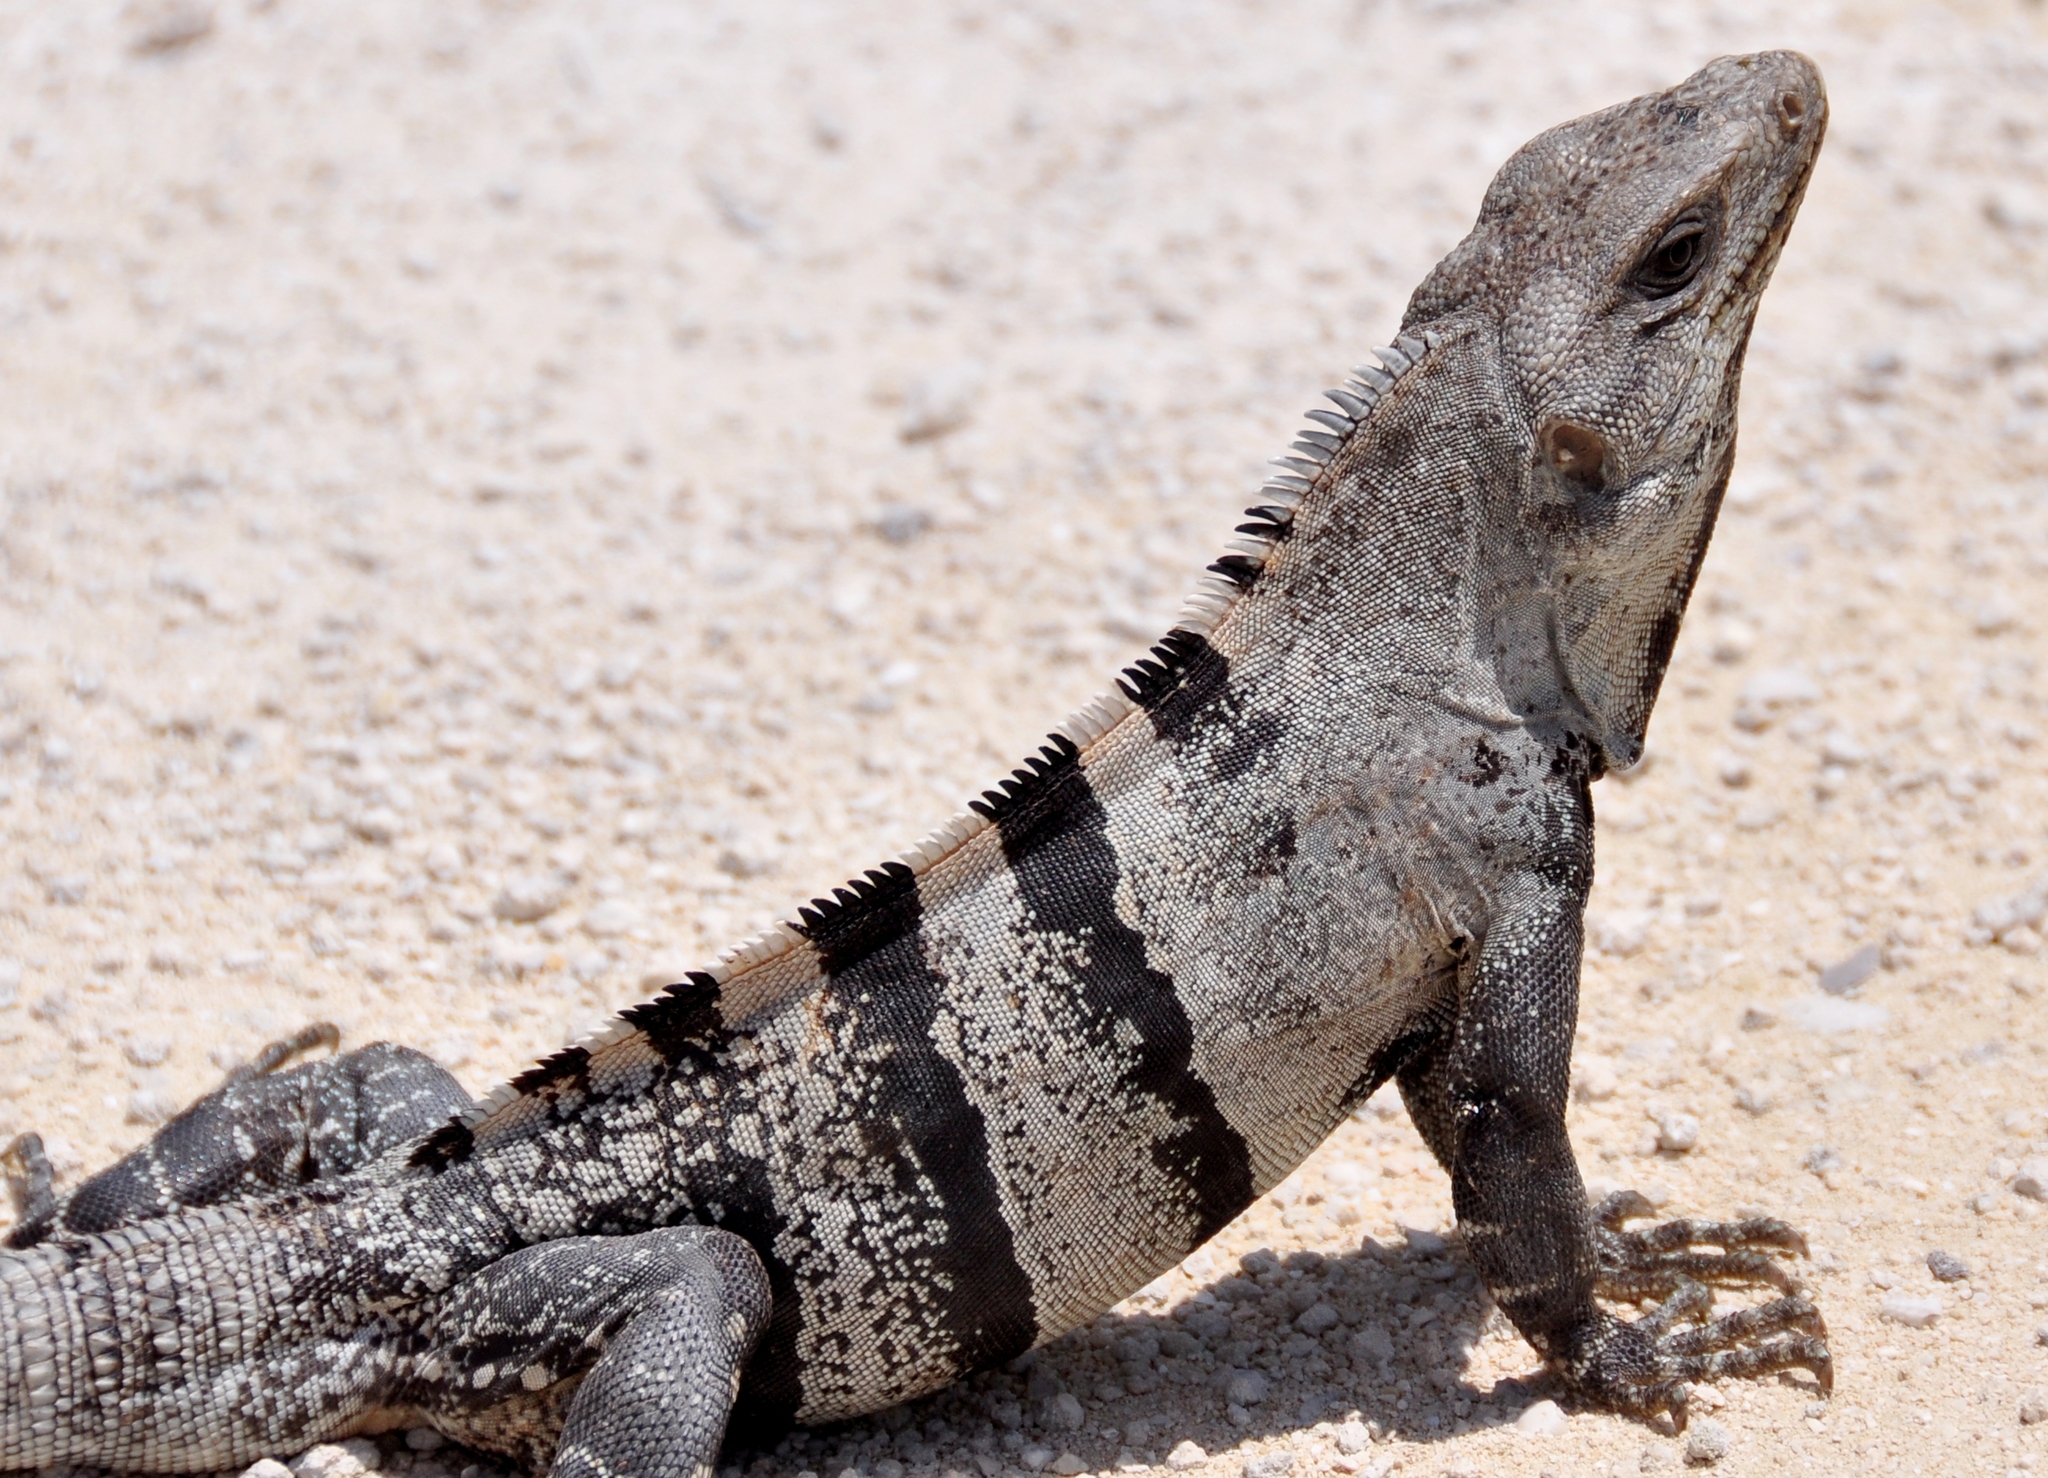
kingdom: Animalia
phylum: Chordata
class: Squamata
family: Iguanidae
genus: Ctenosaura
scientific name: Ctenosaura similis
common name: Black spiny-tailed iguana
